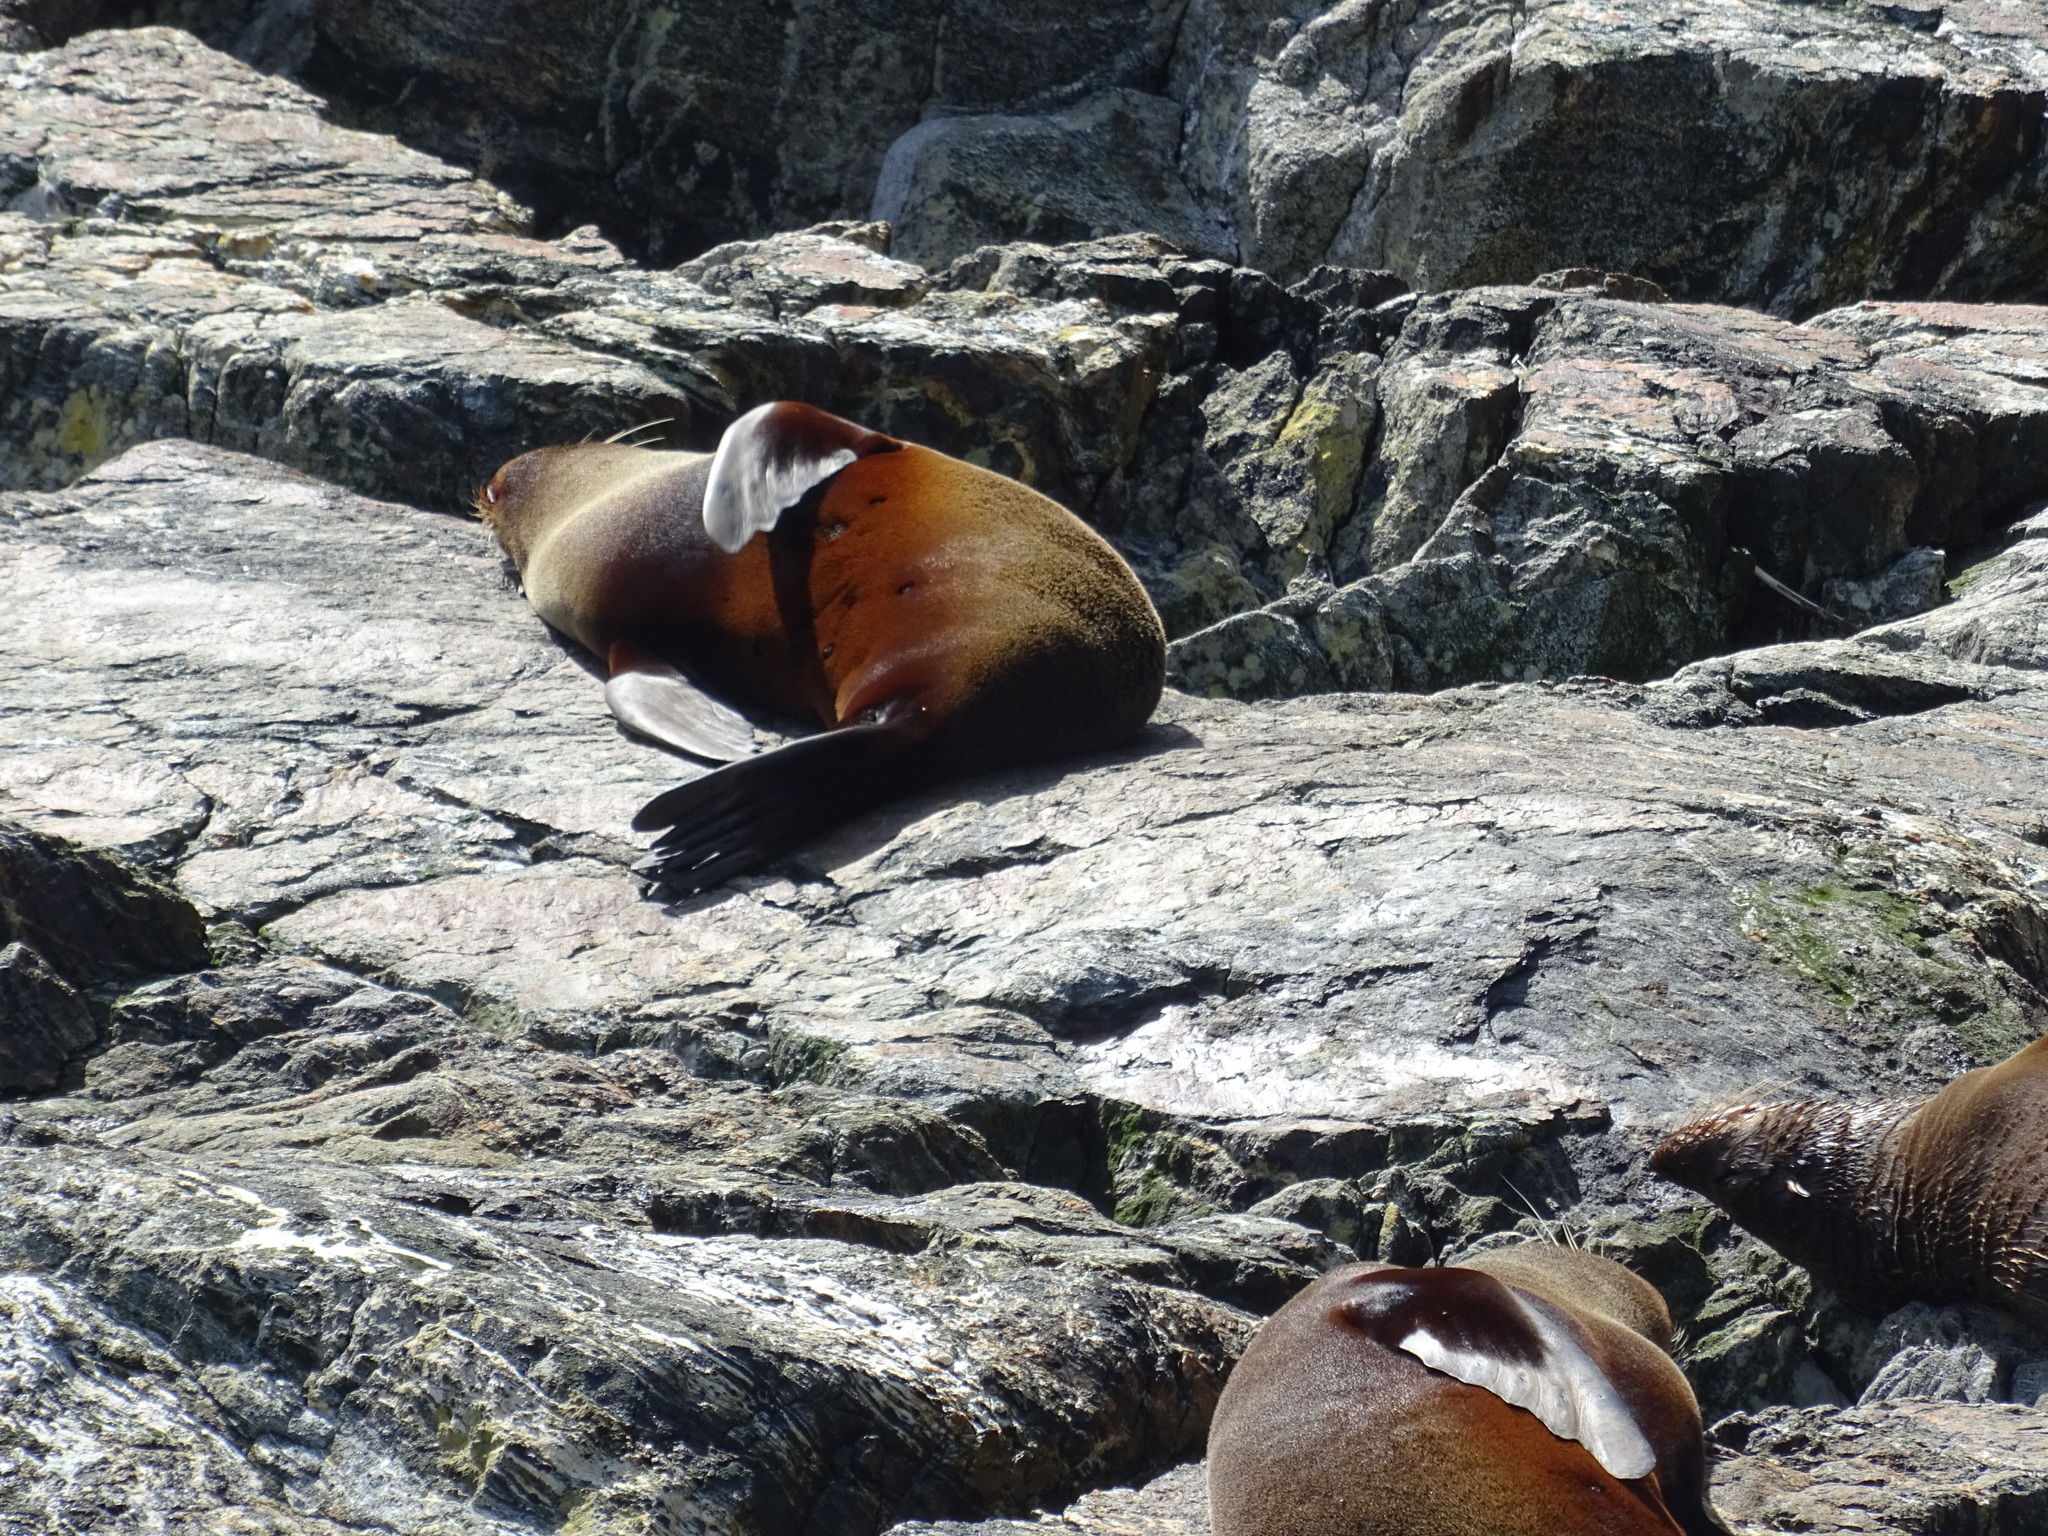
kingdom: Animalia
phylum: Chordata
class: Mammalia
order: Carnivora
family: Otariidae
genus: Arctocephalus
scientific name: Arctocephalus forsteri
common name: New zealand fur seal
